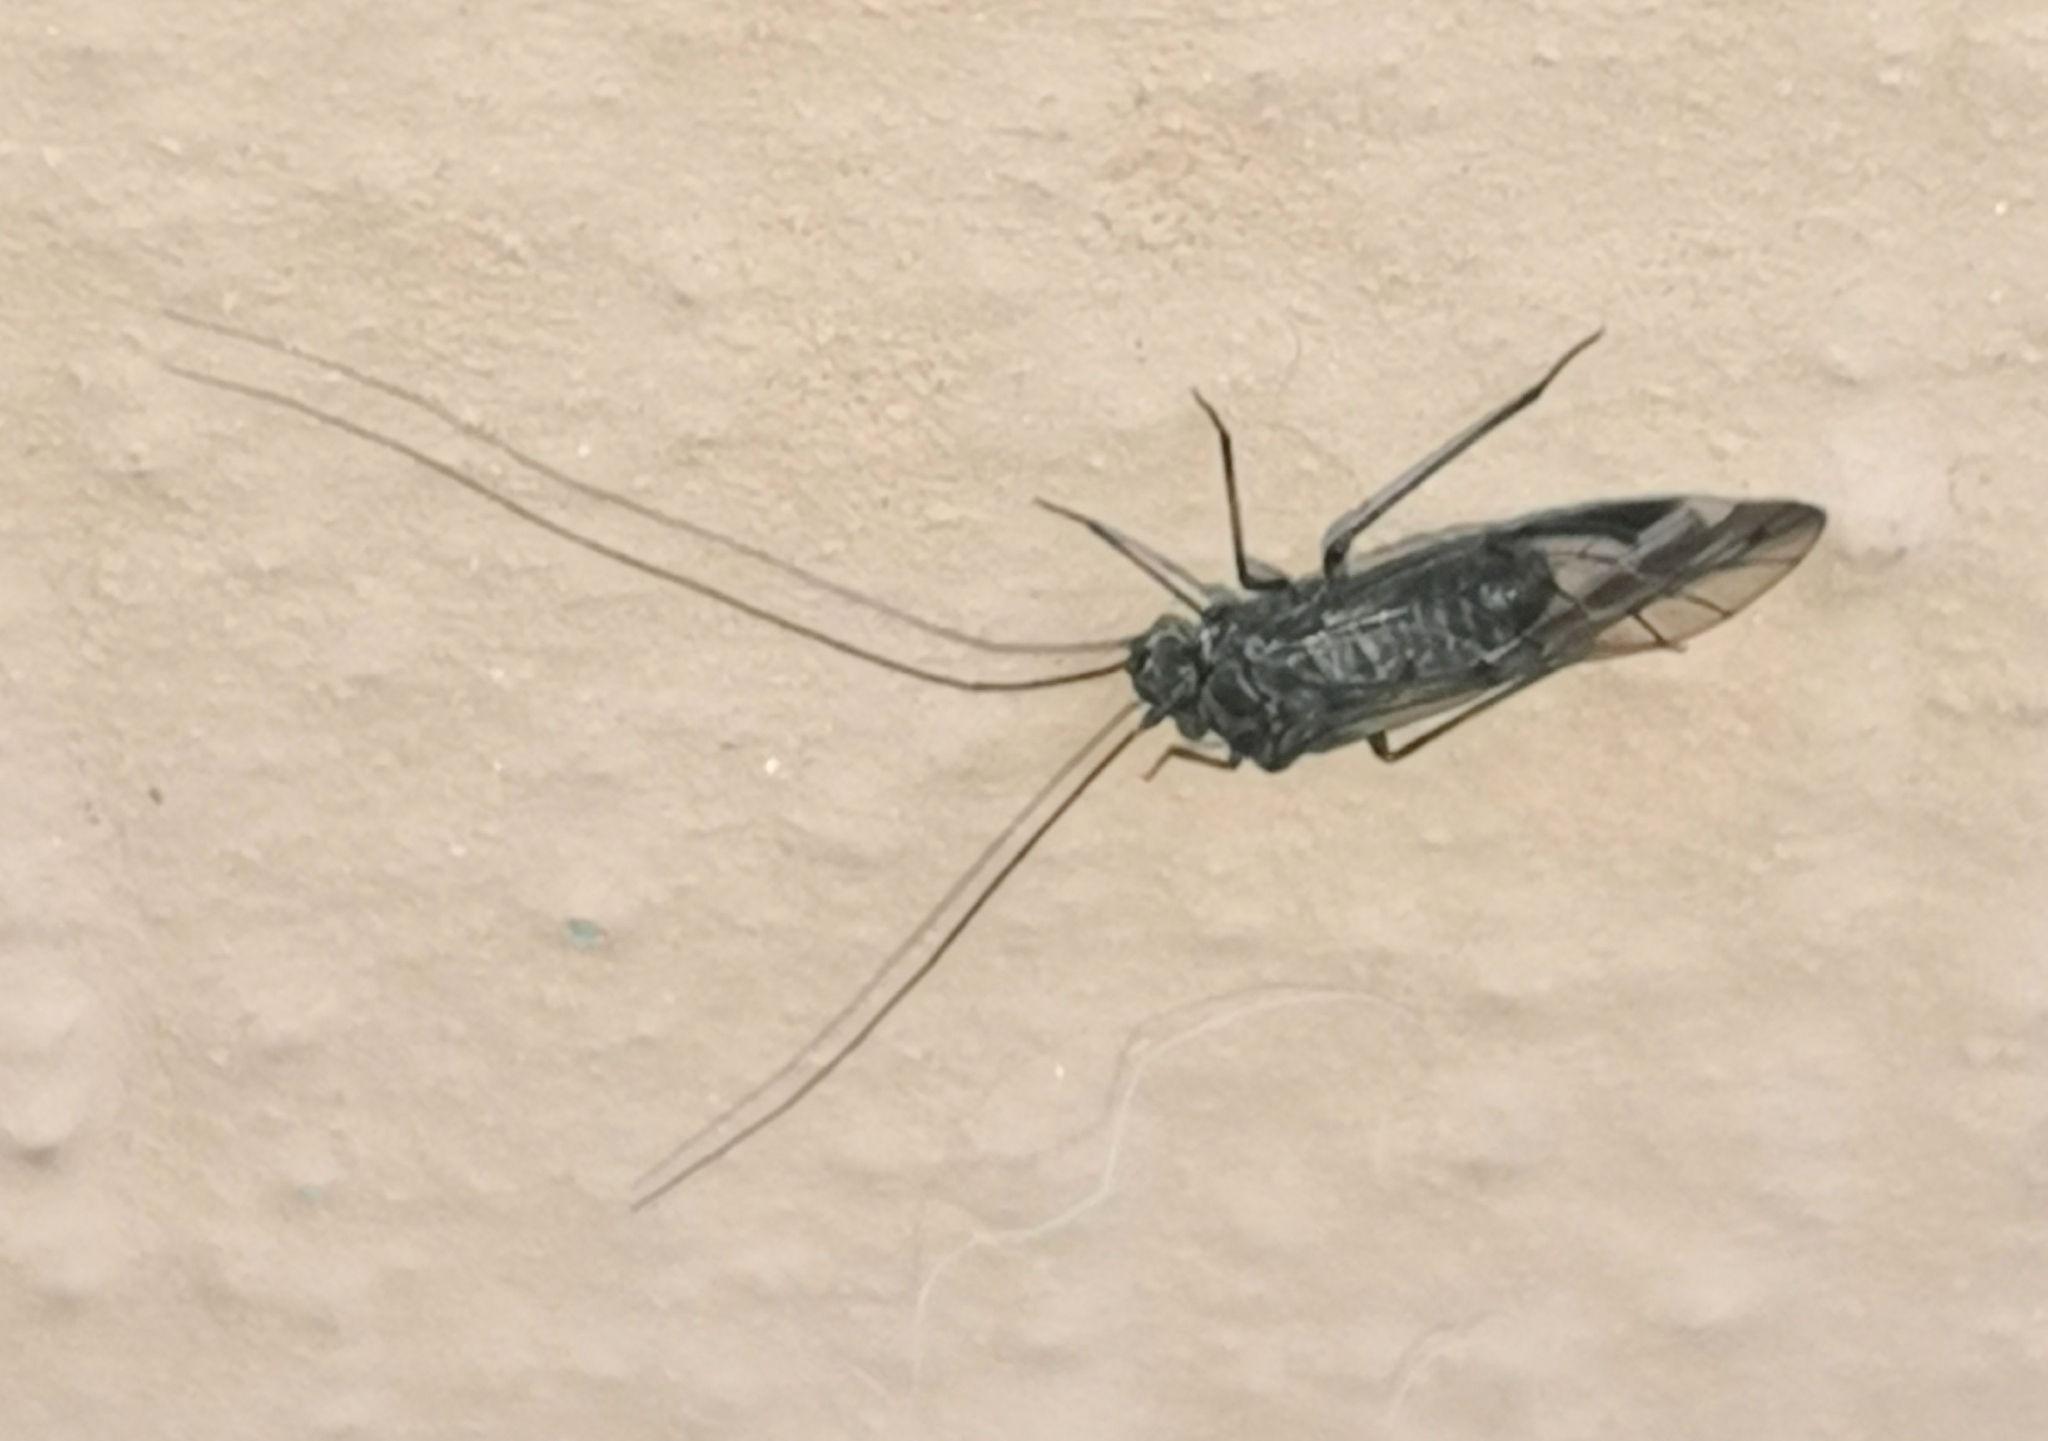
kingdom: Animalia
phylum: Arthropoda
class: Insecta
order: Psocodea
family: Psocidae
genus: Psococerastis
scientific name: Psococerastis gibbosa
